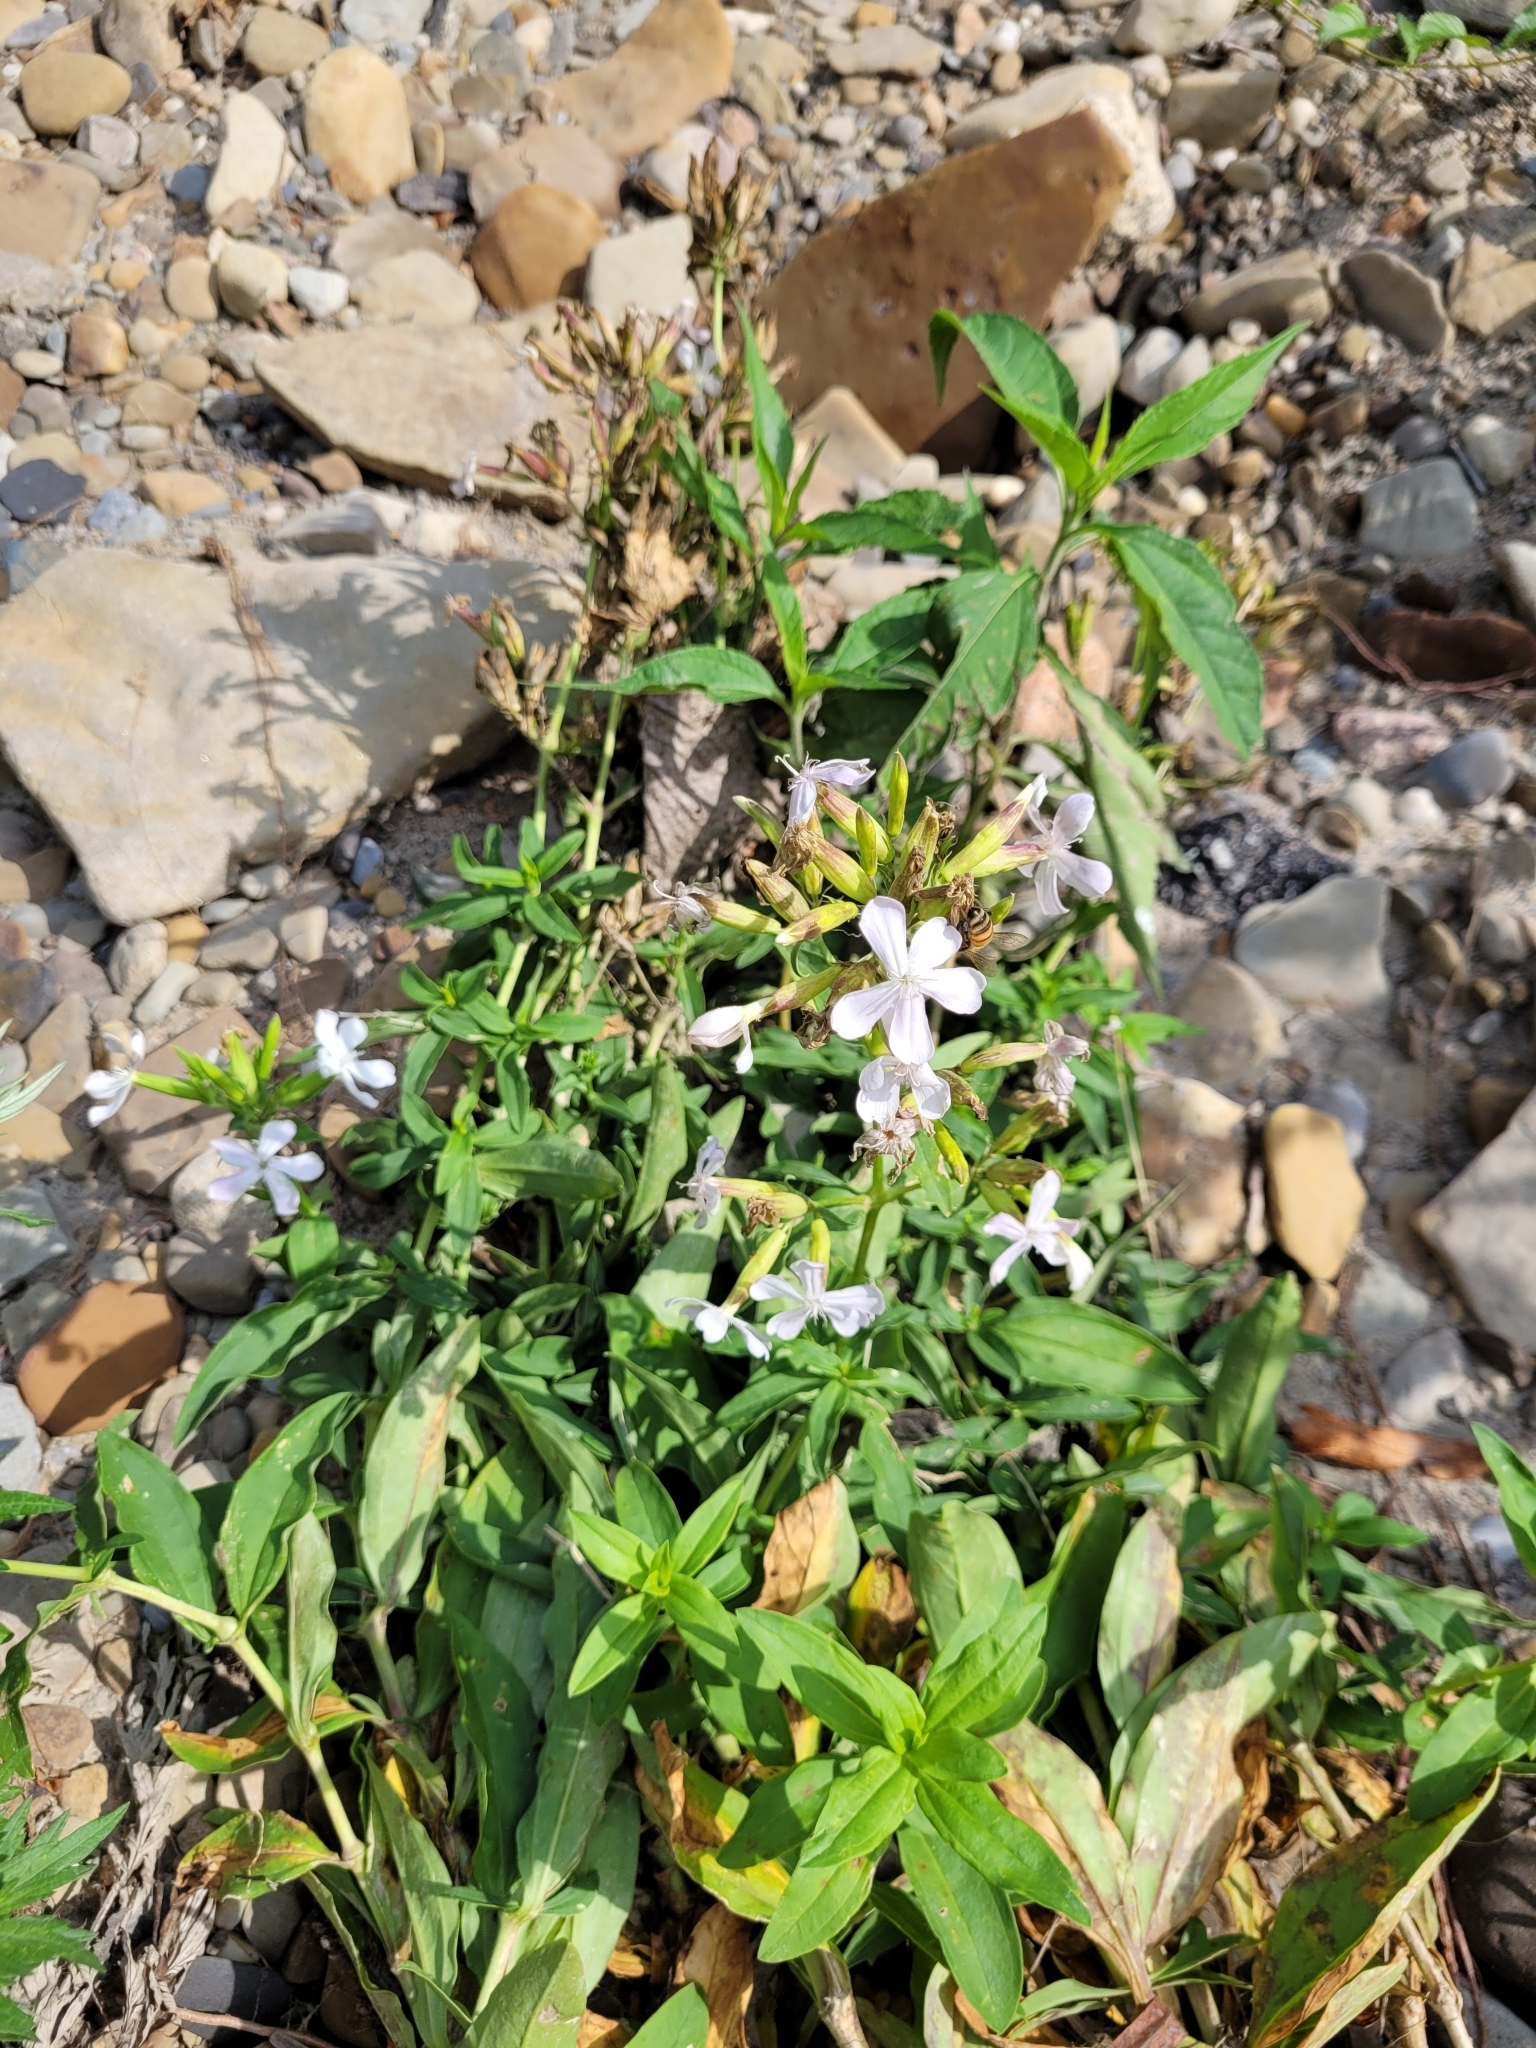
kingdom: Plantae
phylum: Tracheophyta
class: Magnoliopsida
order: Caryophyllales
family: Caryophyllaceae
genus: Saponaria
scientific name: Saponaria officinalis
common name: Soapwort
